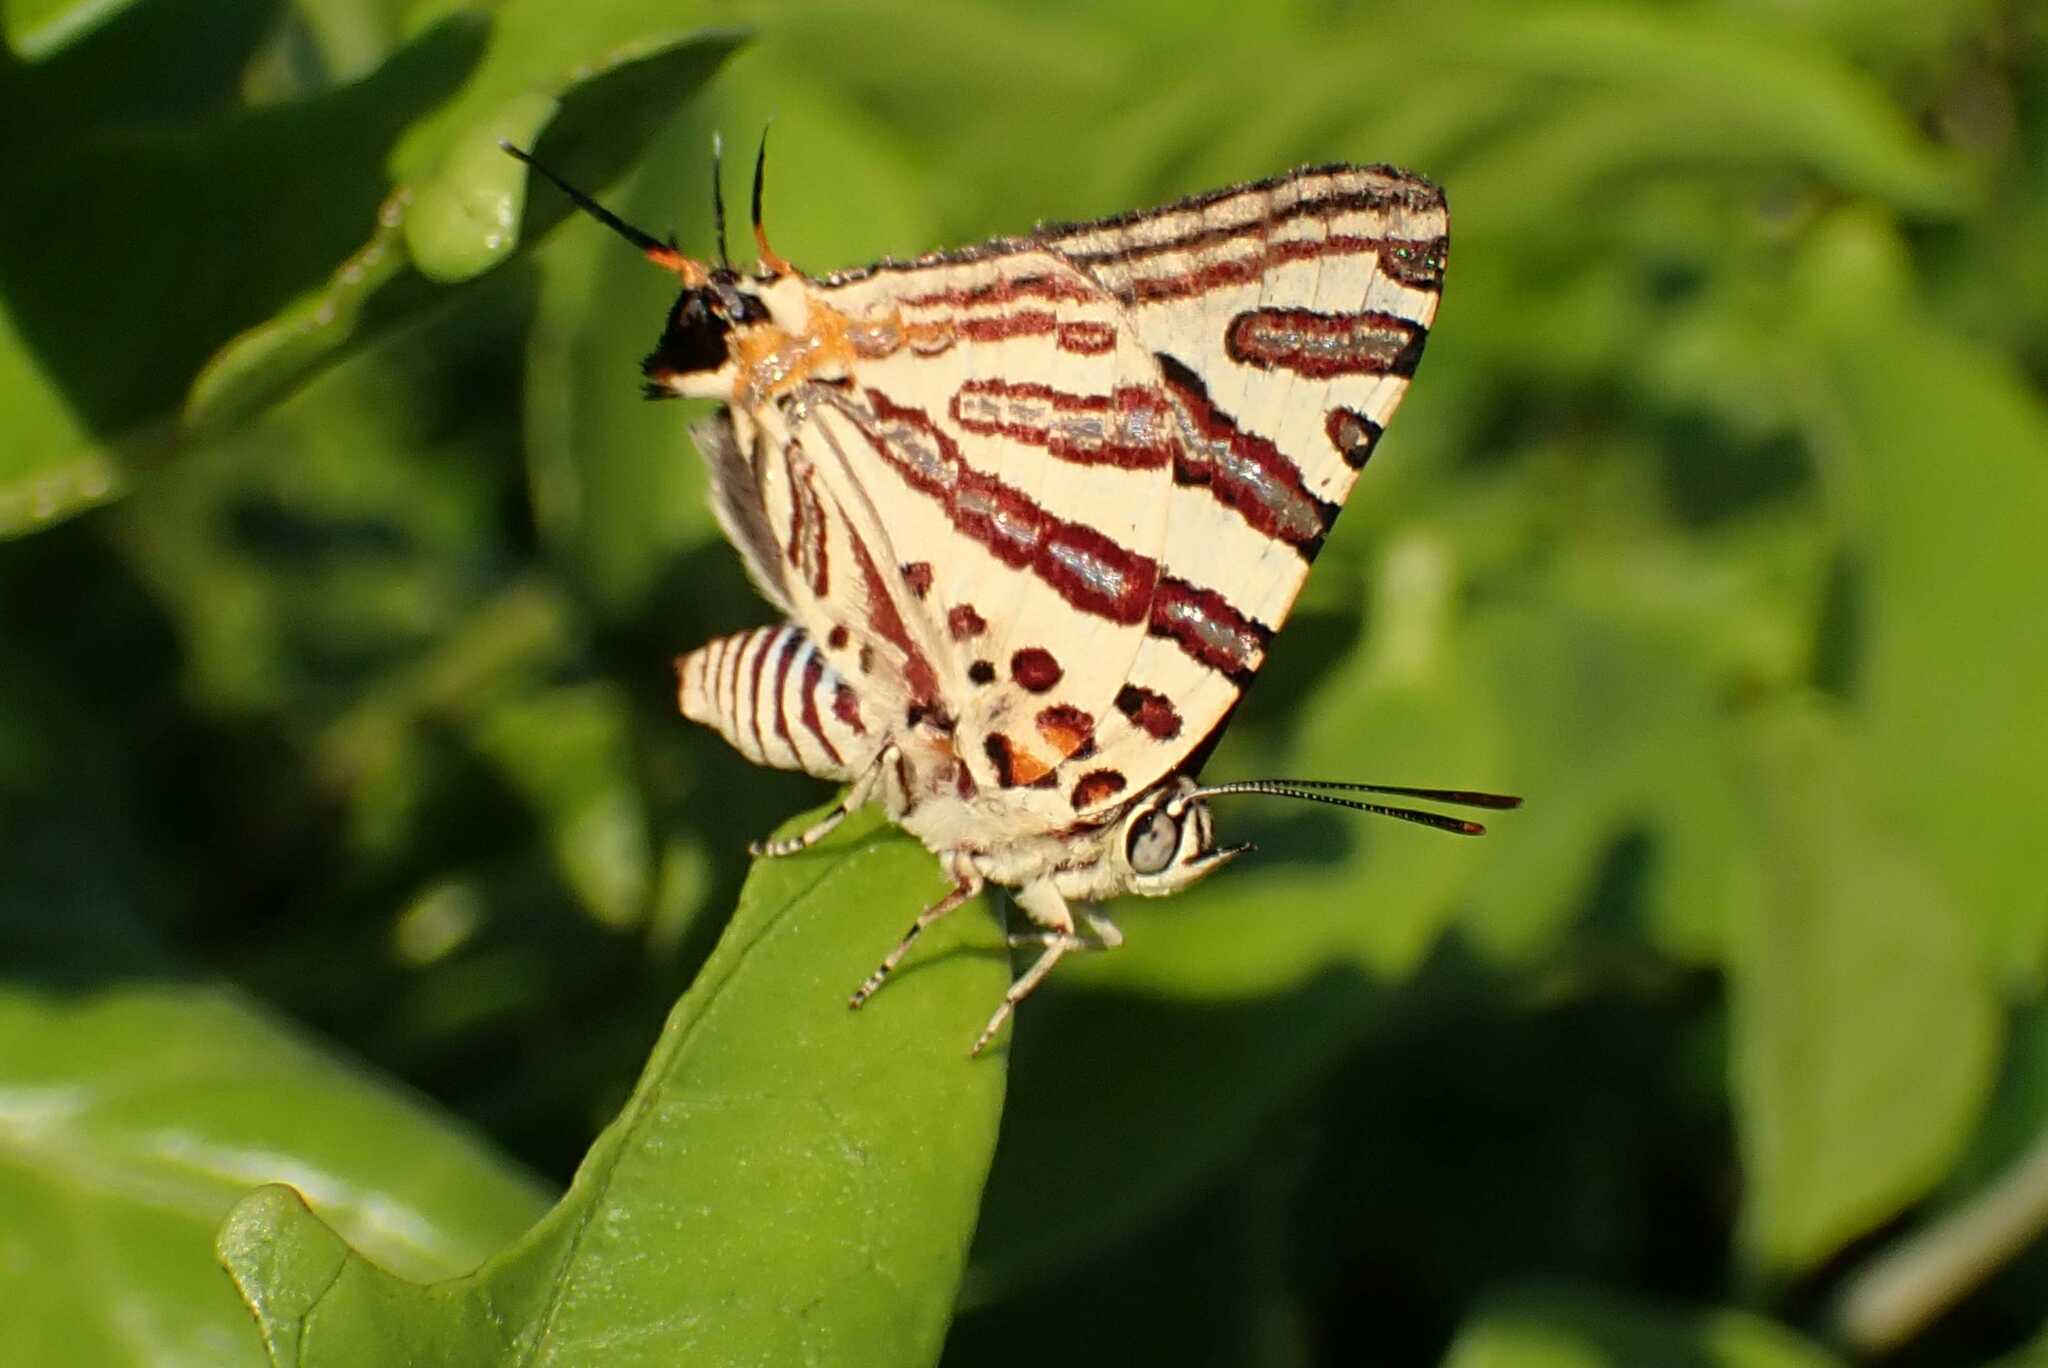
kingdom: Animalia
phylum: Arthropoda
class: Insecta
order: Lepidoptera
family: Lycaenidae
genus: Spindasis
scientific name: Spindasis natalensis
